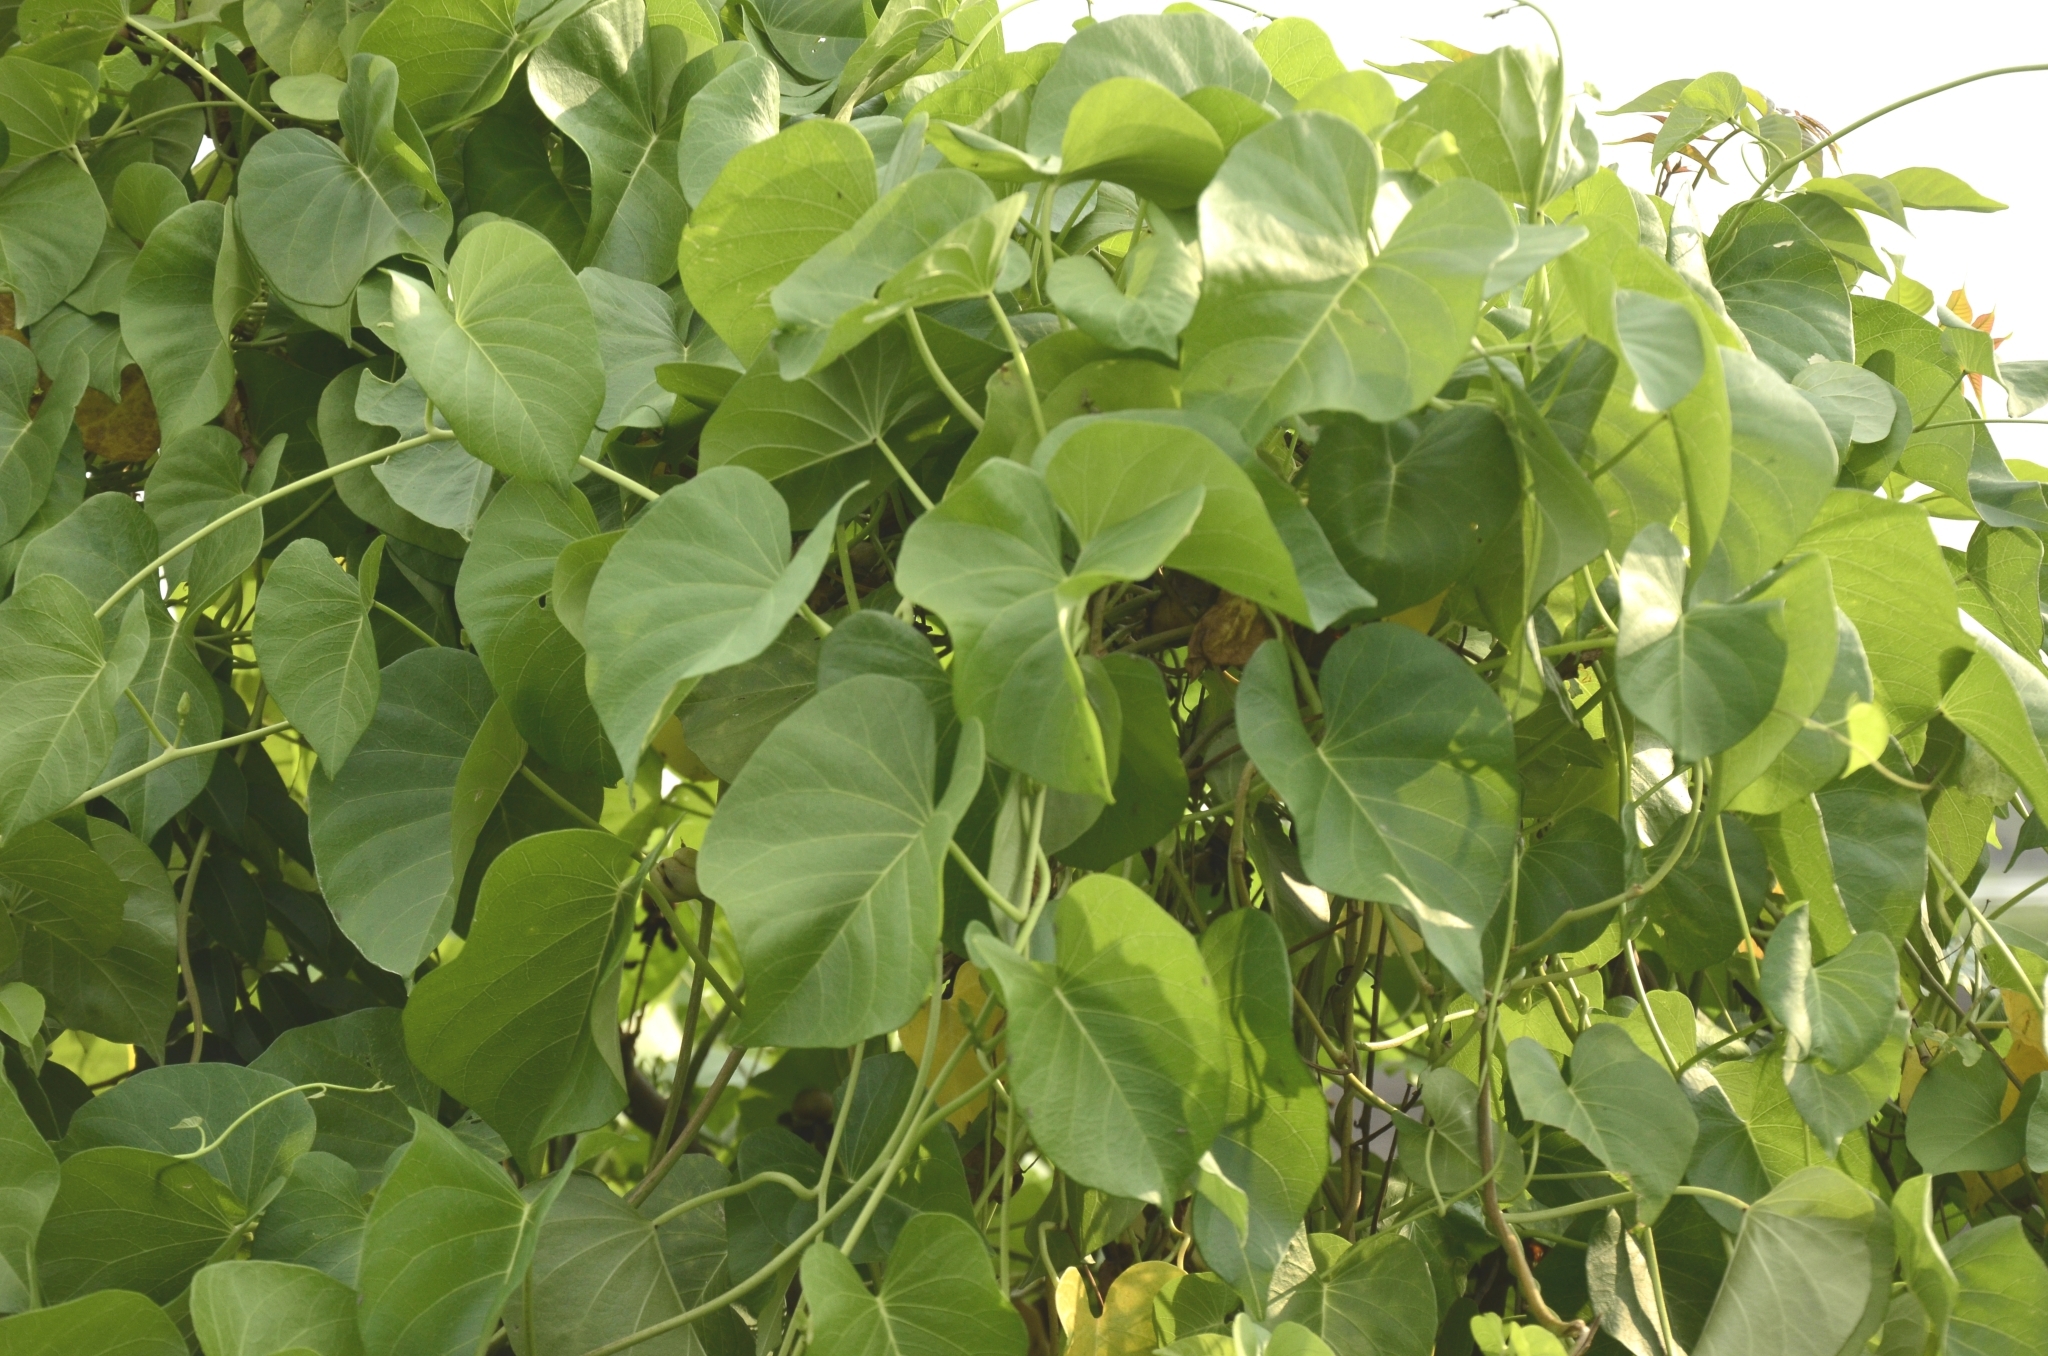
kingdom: Plantae
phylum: Tracheophyta
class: Magnoliopsida
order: Solanales
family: Convolvulaceae
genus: Ipomoea
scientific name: Ipomoea violacea
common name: Beach moonflower
